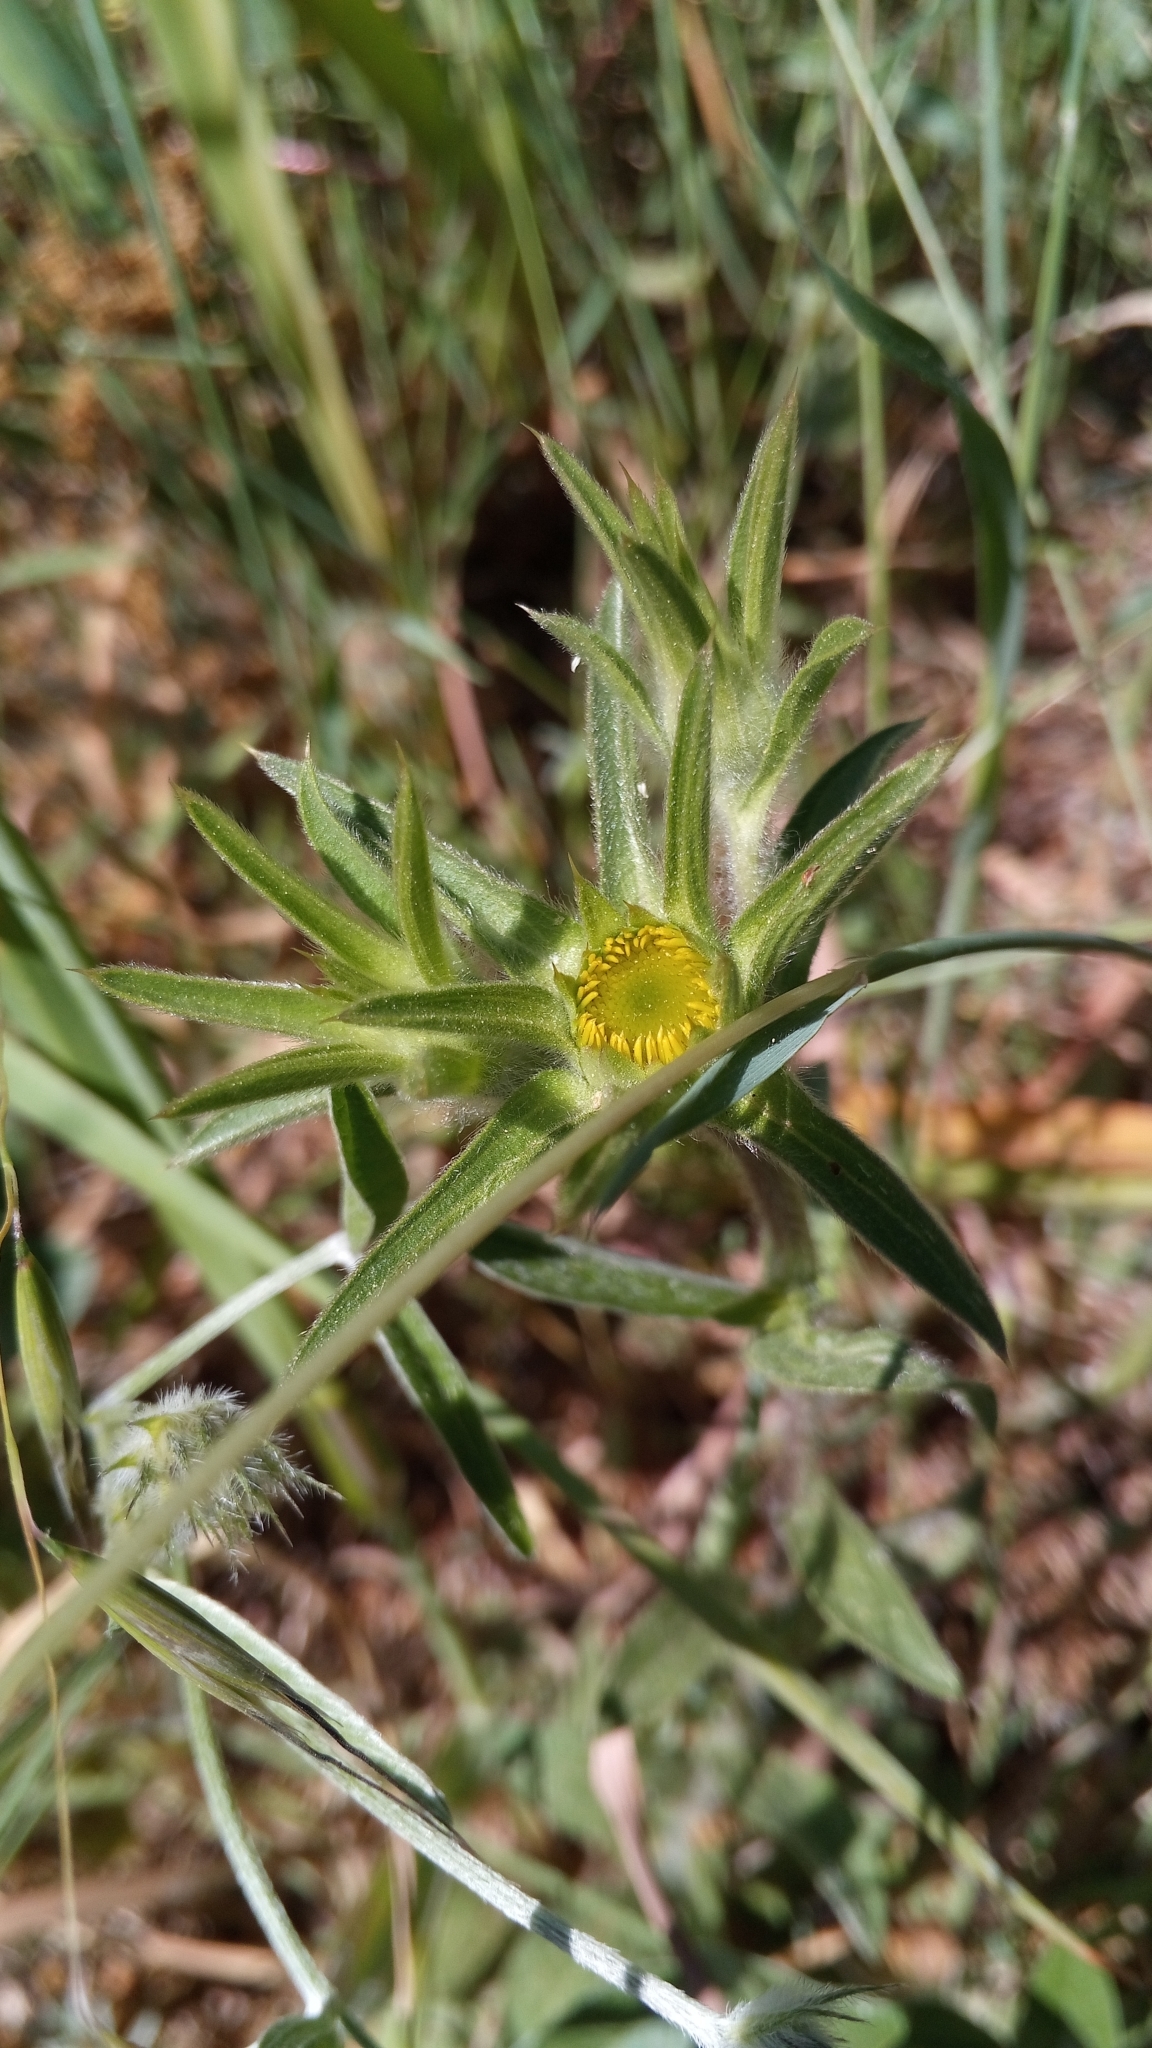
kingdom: Plantae
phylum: Tracheophyta
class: Magnoliopsida
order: Asterales
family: Asteraceae
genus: Pallenis
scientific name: Pallenis spinosa
